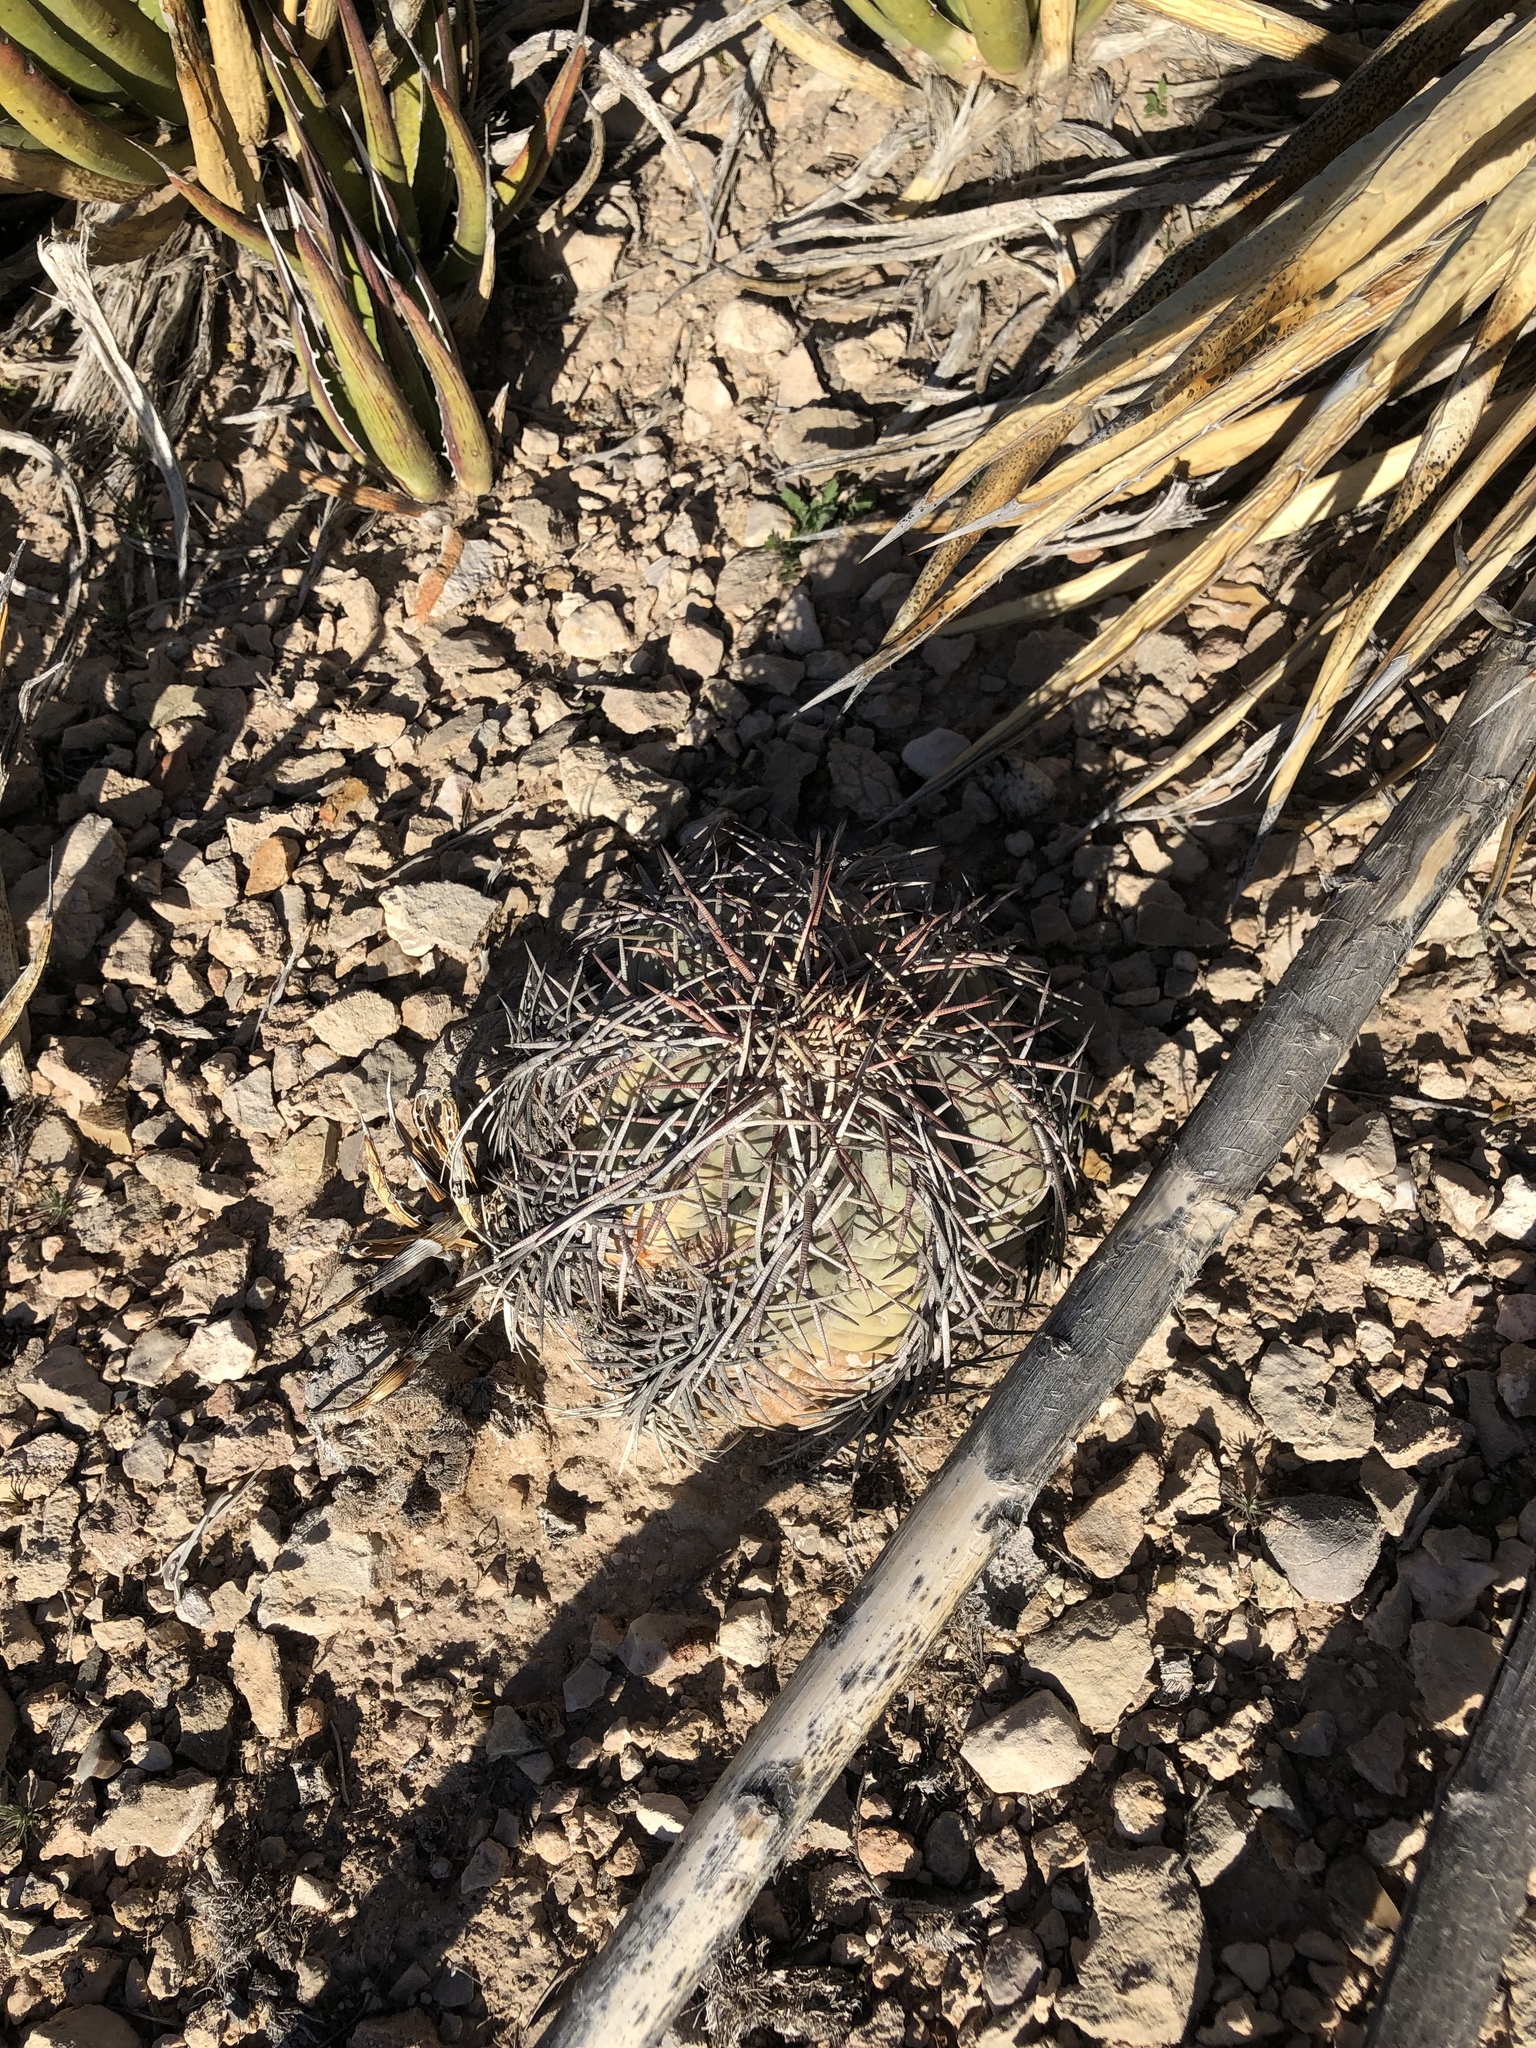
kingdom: Plantae
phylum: Tracheophyta
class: Magnoliopsida
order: Caryophyllales
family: Cactaceae
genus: Echinocactus
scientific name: Echinocactus horizonthalonius
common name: Devilshead
